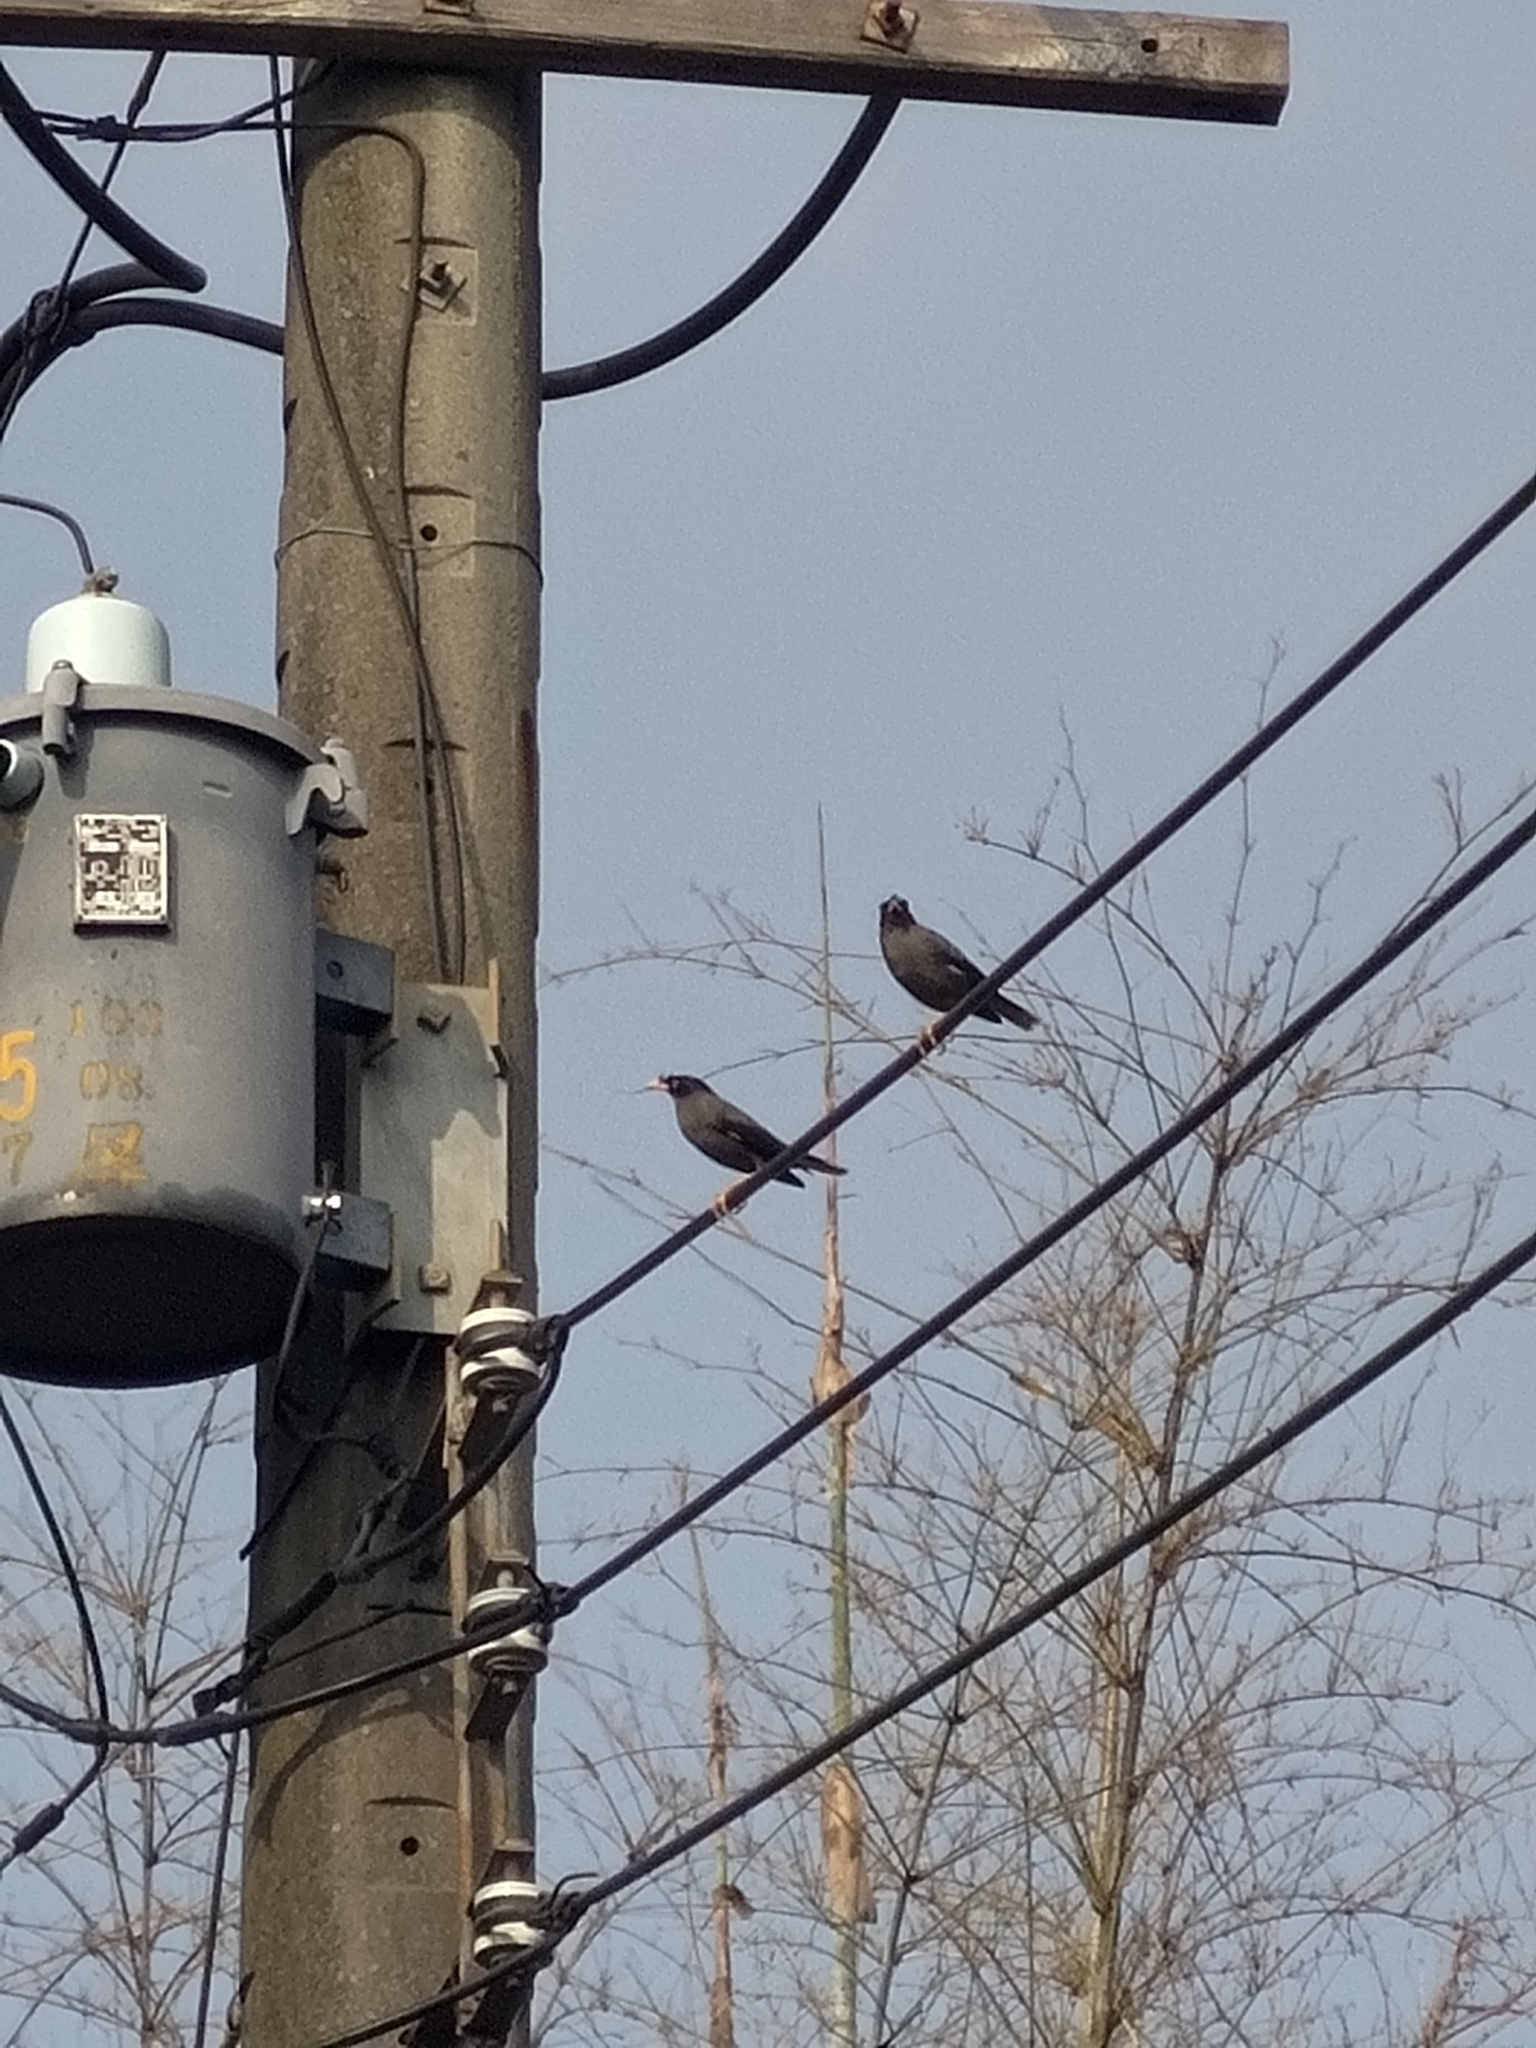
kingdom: Animalia
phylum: Chordata
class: Aves
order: Passeriformes
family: Sturnidae
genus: Acridotheres
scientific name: Acridotheres javanicus
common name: Javan myna
